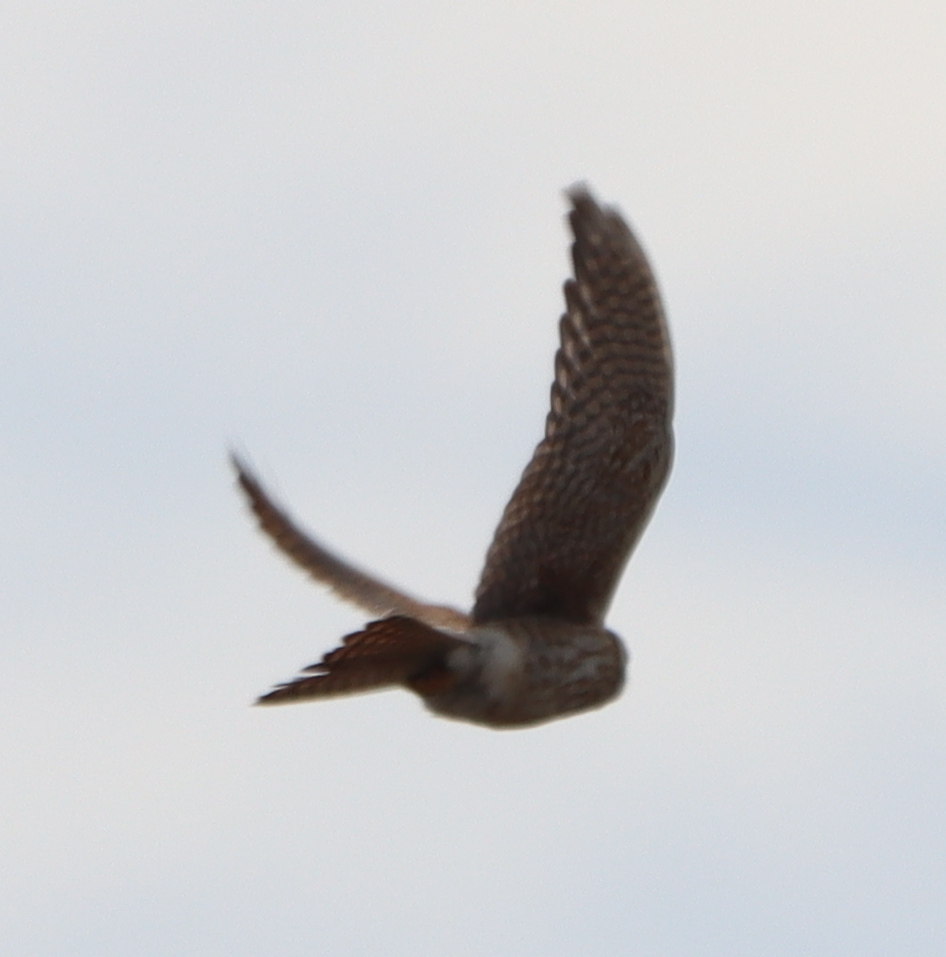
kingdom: Animalia
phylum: Chordata
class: Aves
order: Falconiformes
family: Falconidae
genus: Falco
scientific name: Falco sparverius
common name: American kestrel
